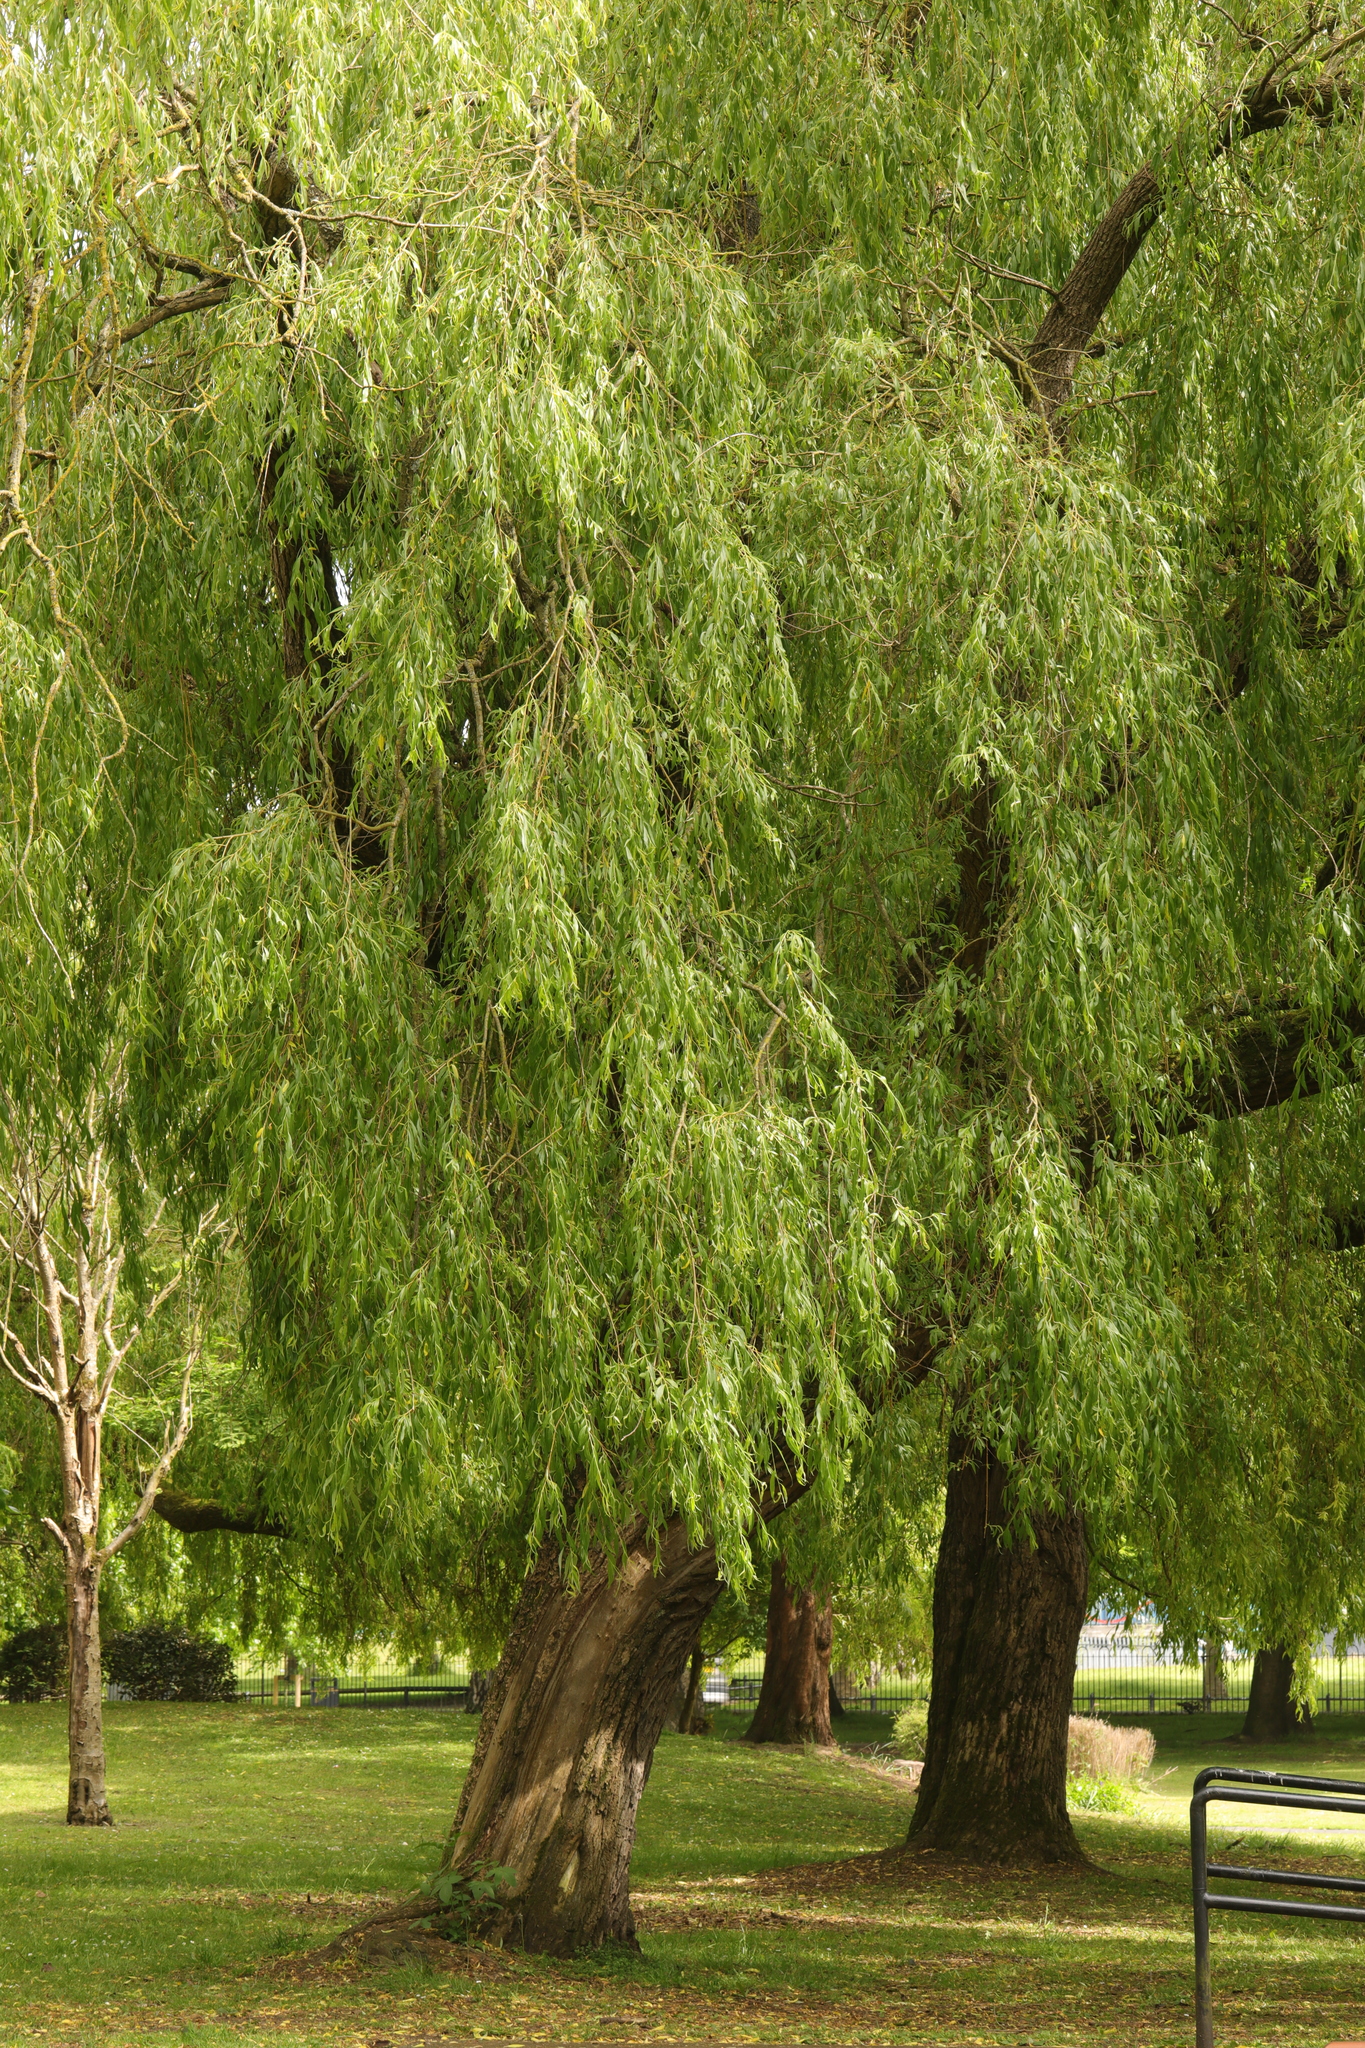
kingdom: Plantae
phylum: Tracheophyta
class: Magnoliopsida
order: Malpighiales
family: Salicaceae
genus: Salix
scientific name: Salix pendulina
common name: Wisconsin weeping willow
